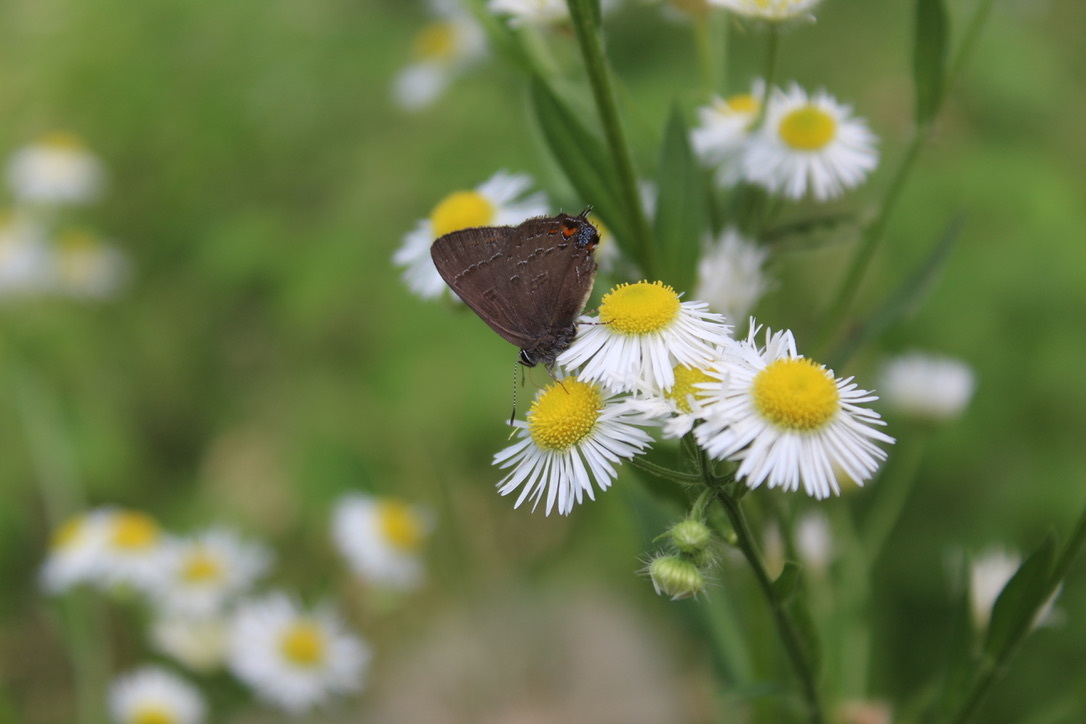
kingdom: Animalia
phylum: Arthropoda
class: Insecta
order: Lepidoptera
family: Lycaenidae
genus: Satyrium
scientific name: Satyrium calanus
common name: Banded hairstreak
